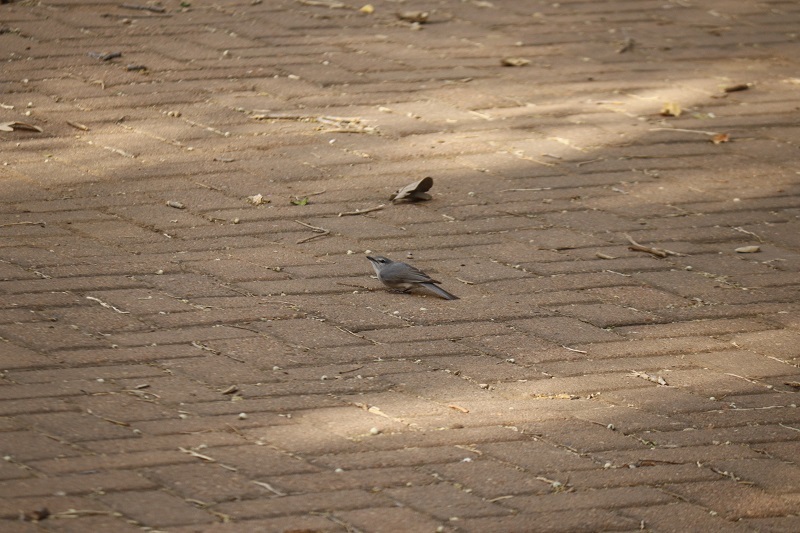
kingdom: Animalia
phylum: Chordata
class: Aves
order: Passeriformes
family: Muscicapidae
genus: Muscicapa
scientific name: Muscicapa caerulescens
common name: Ashy flycatcher
